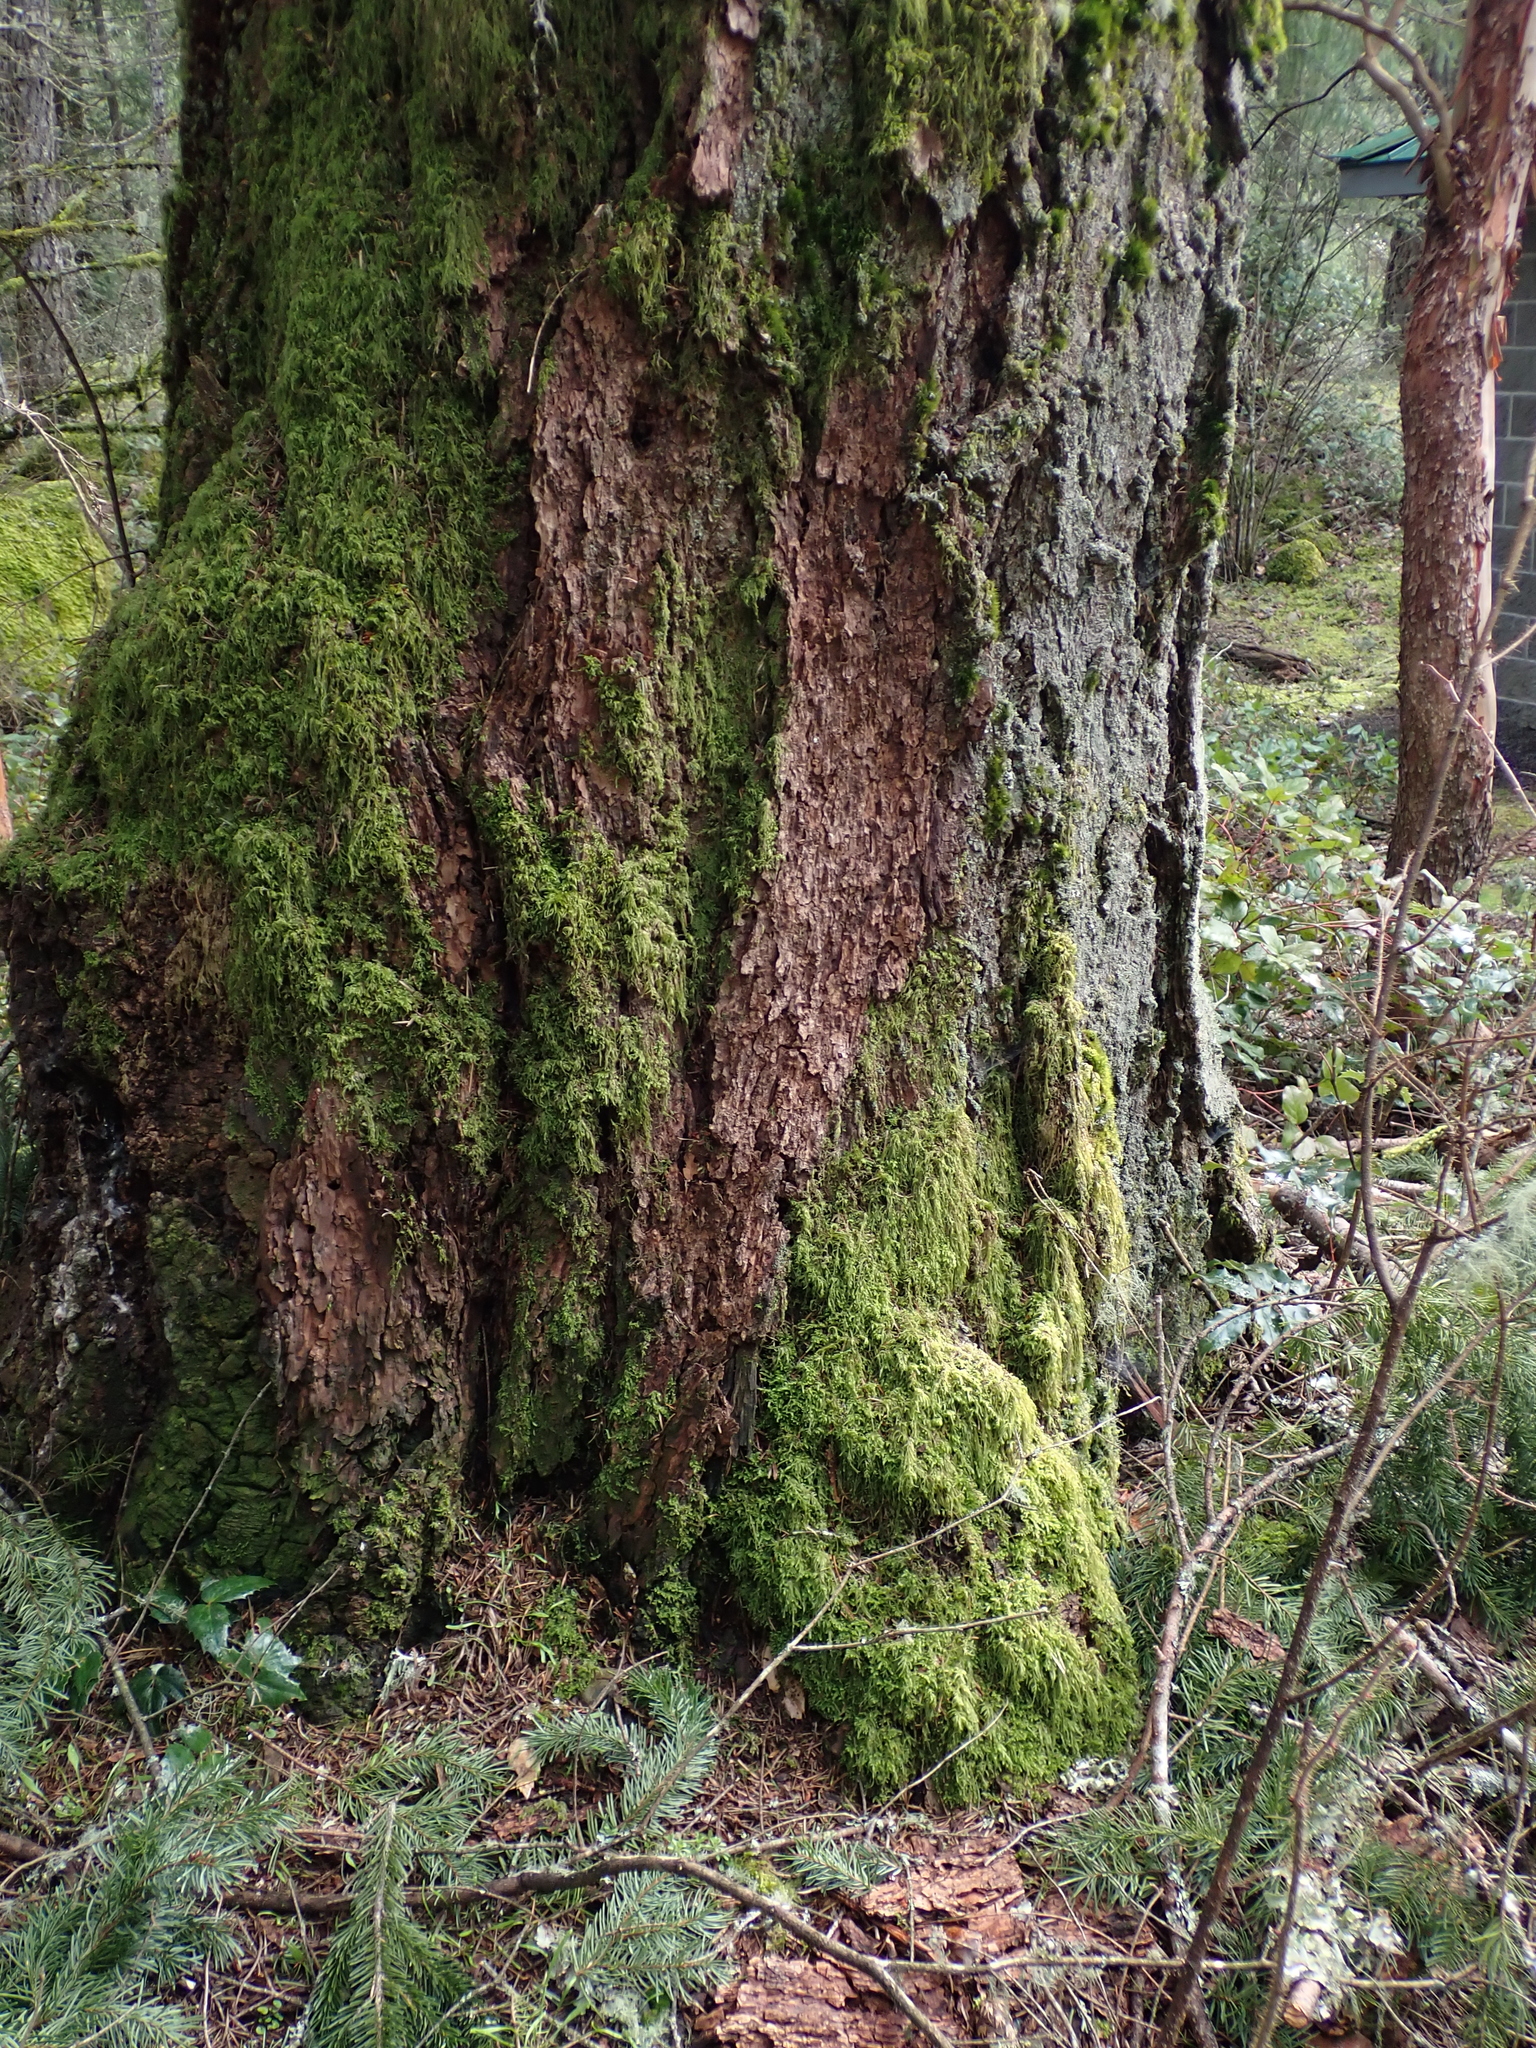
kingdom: Plantae
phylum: Bryophyta
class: Bryopsida
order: Dicranales
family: Dicranaceae
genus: Orthodicranum
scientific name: Orthodicranum tauricum
